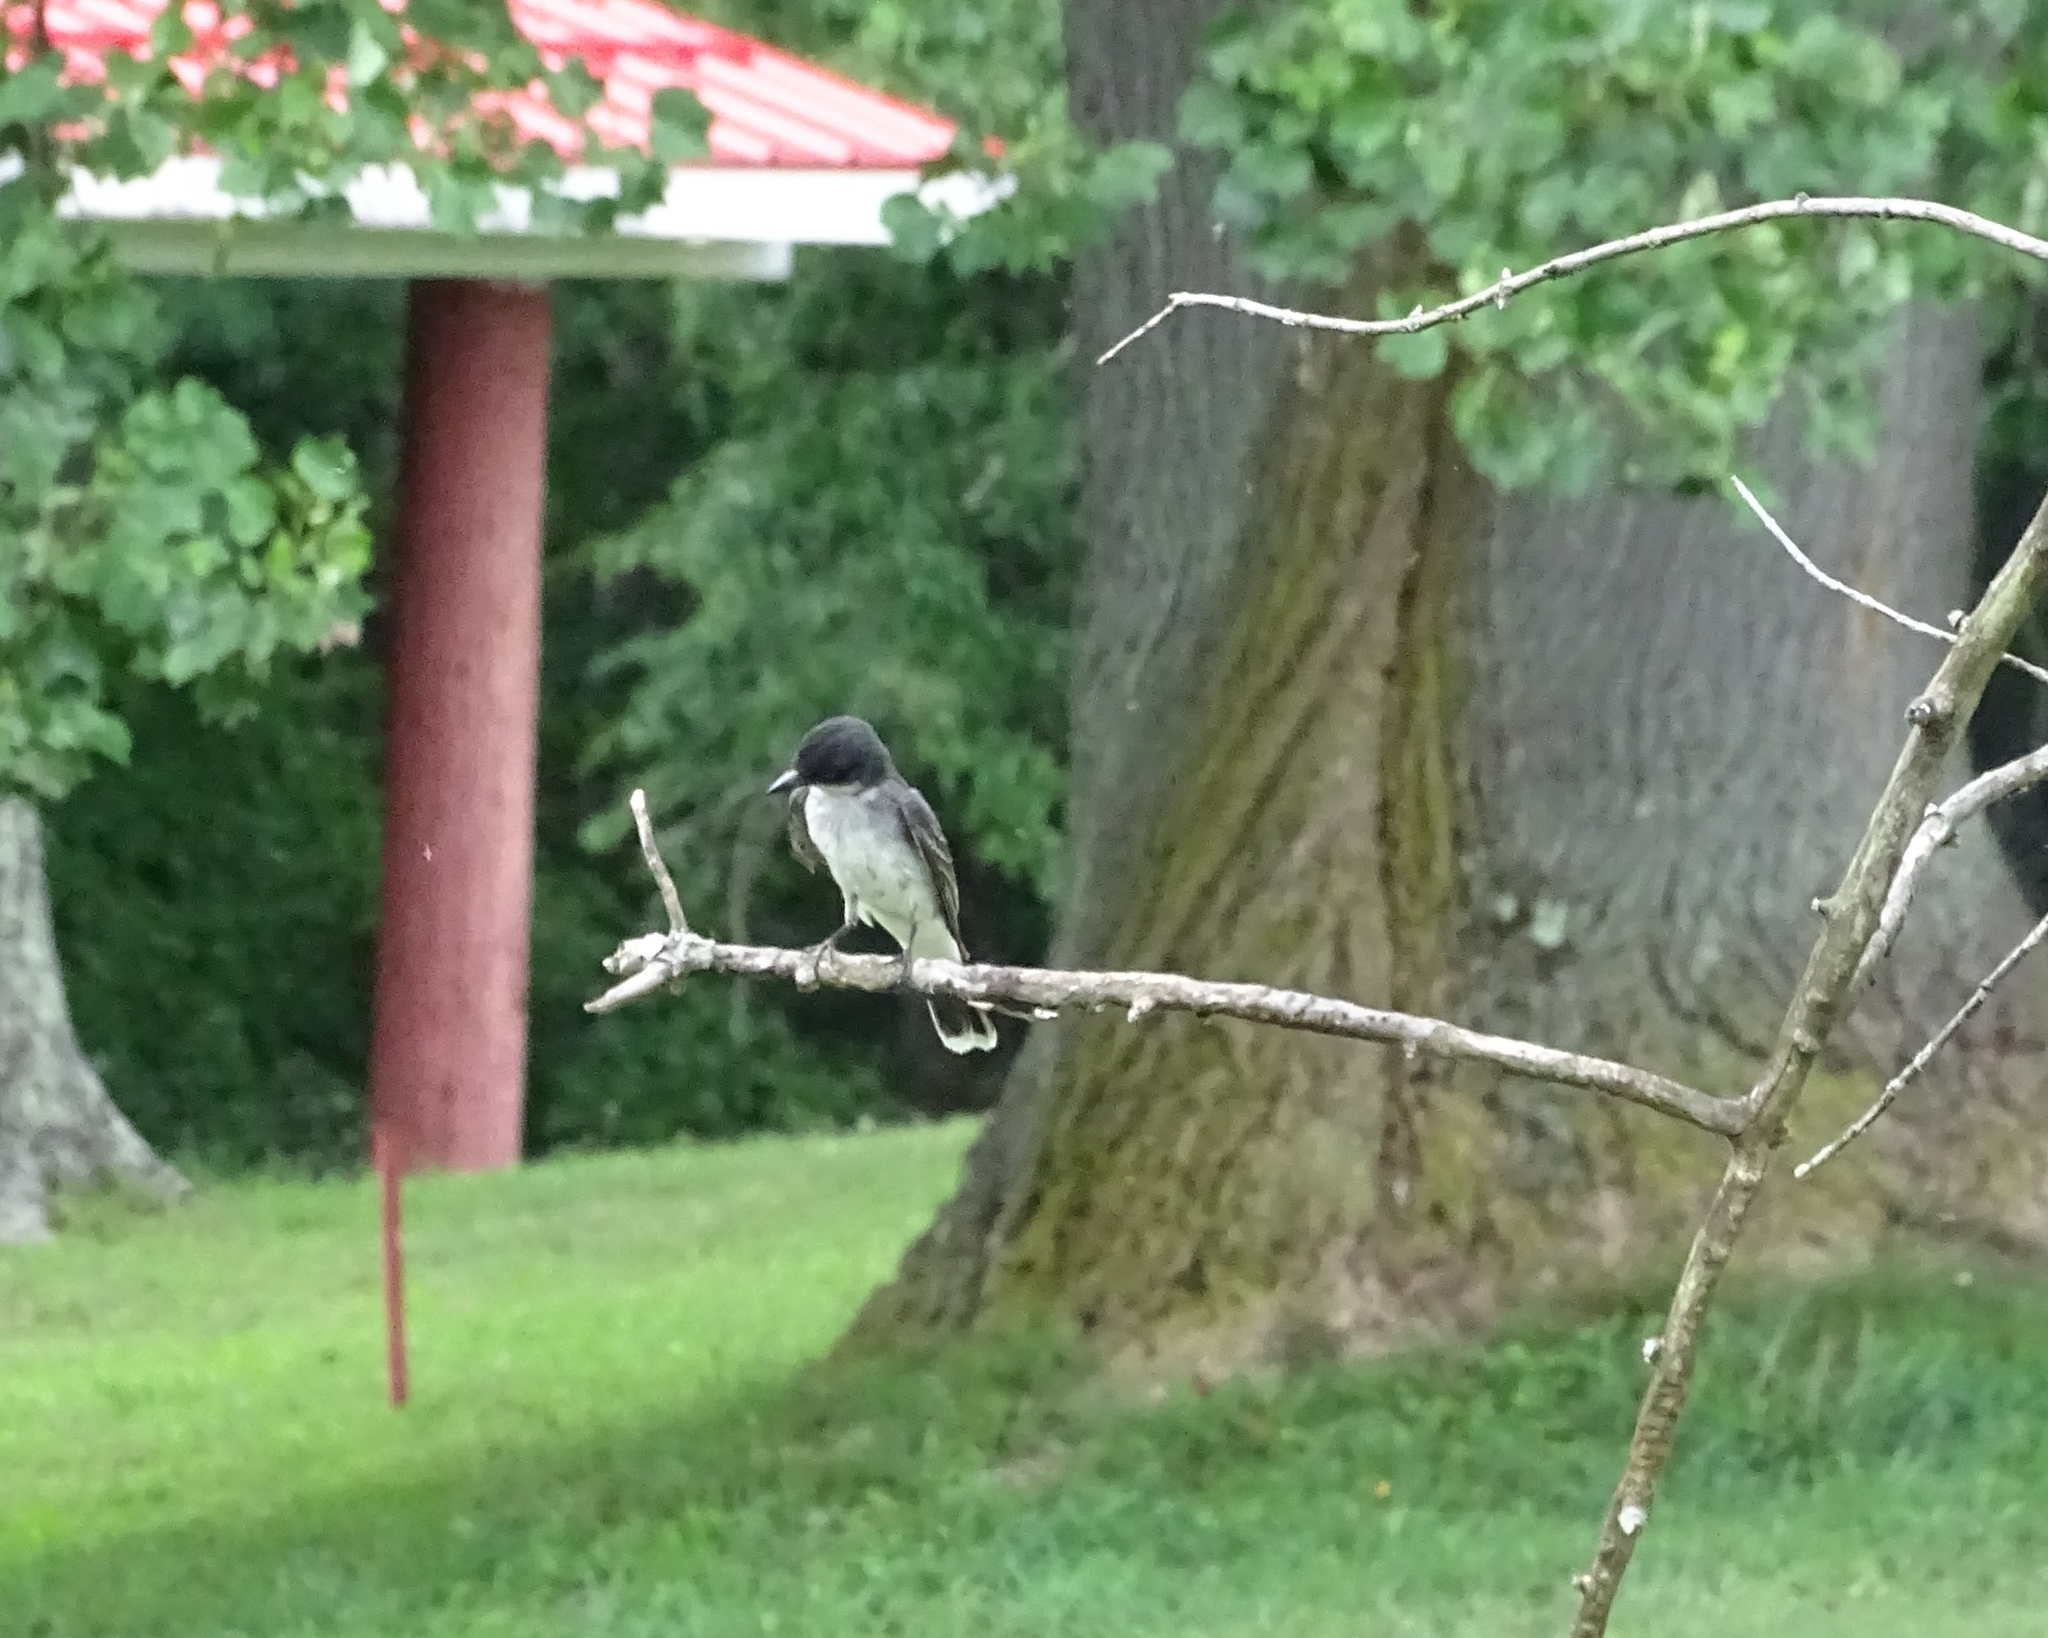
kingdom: Animalia
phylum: Chordata
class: Aves
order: Passeriformes
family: Tyrannidae
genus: Tyrannus
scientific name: Tyrannus tyrannus
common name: Eastern kingbird
